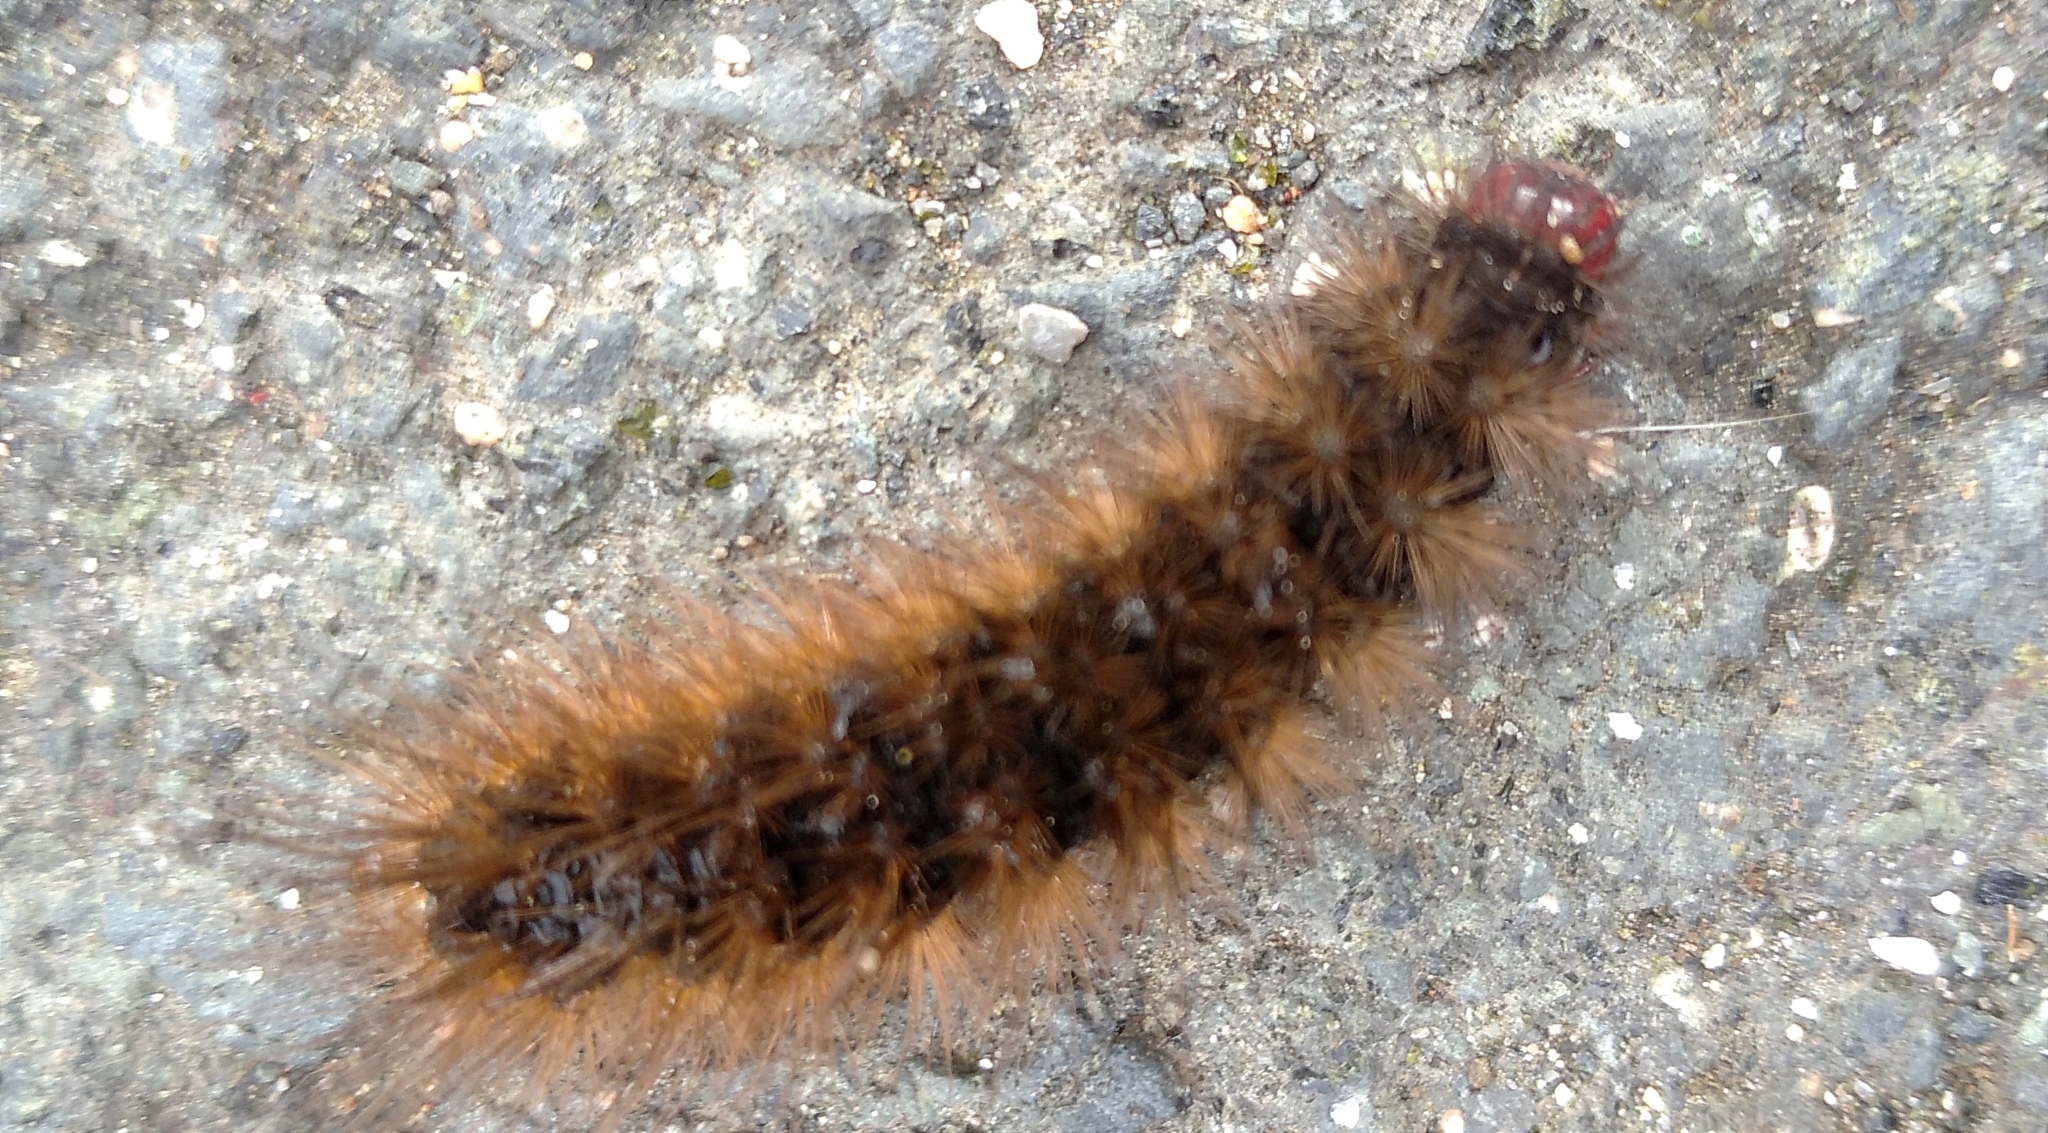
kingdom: Animalia
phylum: Arthropoda
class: Insecta
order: Lepidoptera
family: Erebidae
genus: Epicallia
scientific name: Epicallia villica
